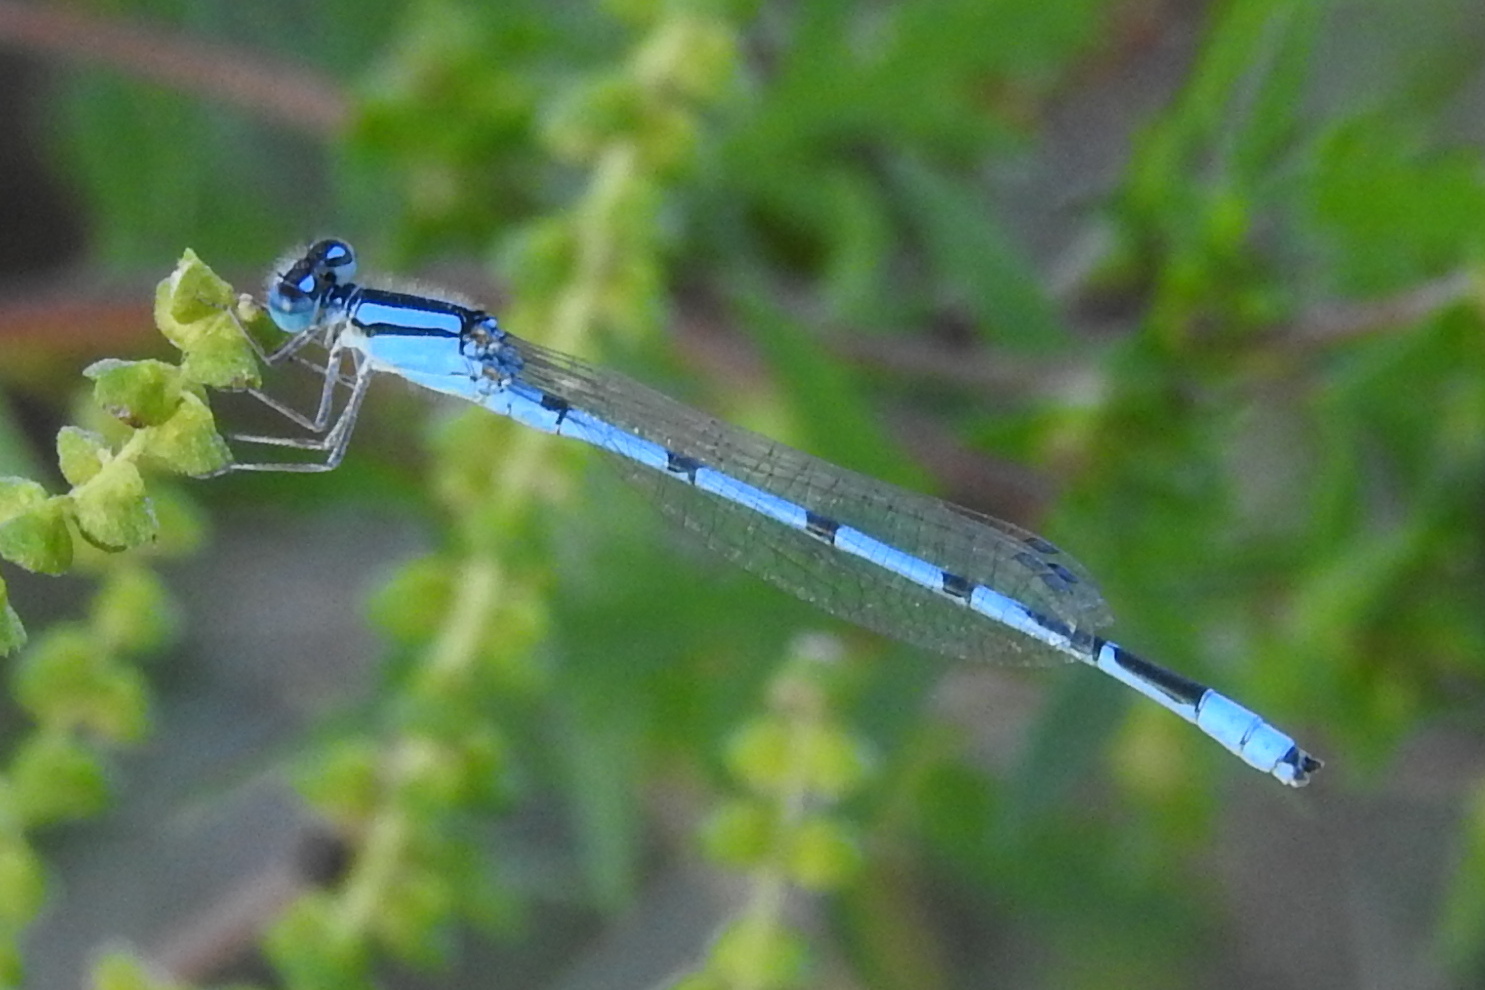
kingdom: Animalia
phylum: Arthropoda
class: Insecta
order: Odonata
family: Coenagrionidae
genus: Enallagma
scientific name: Enallagma civile
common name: Damselfly
